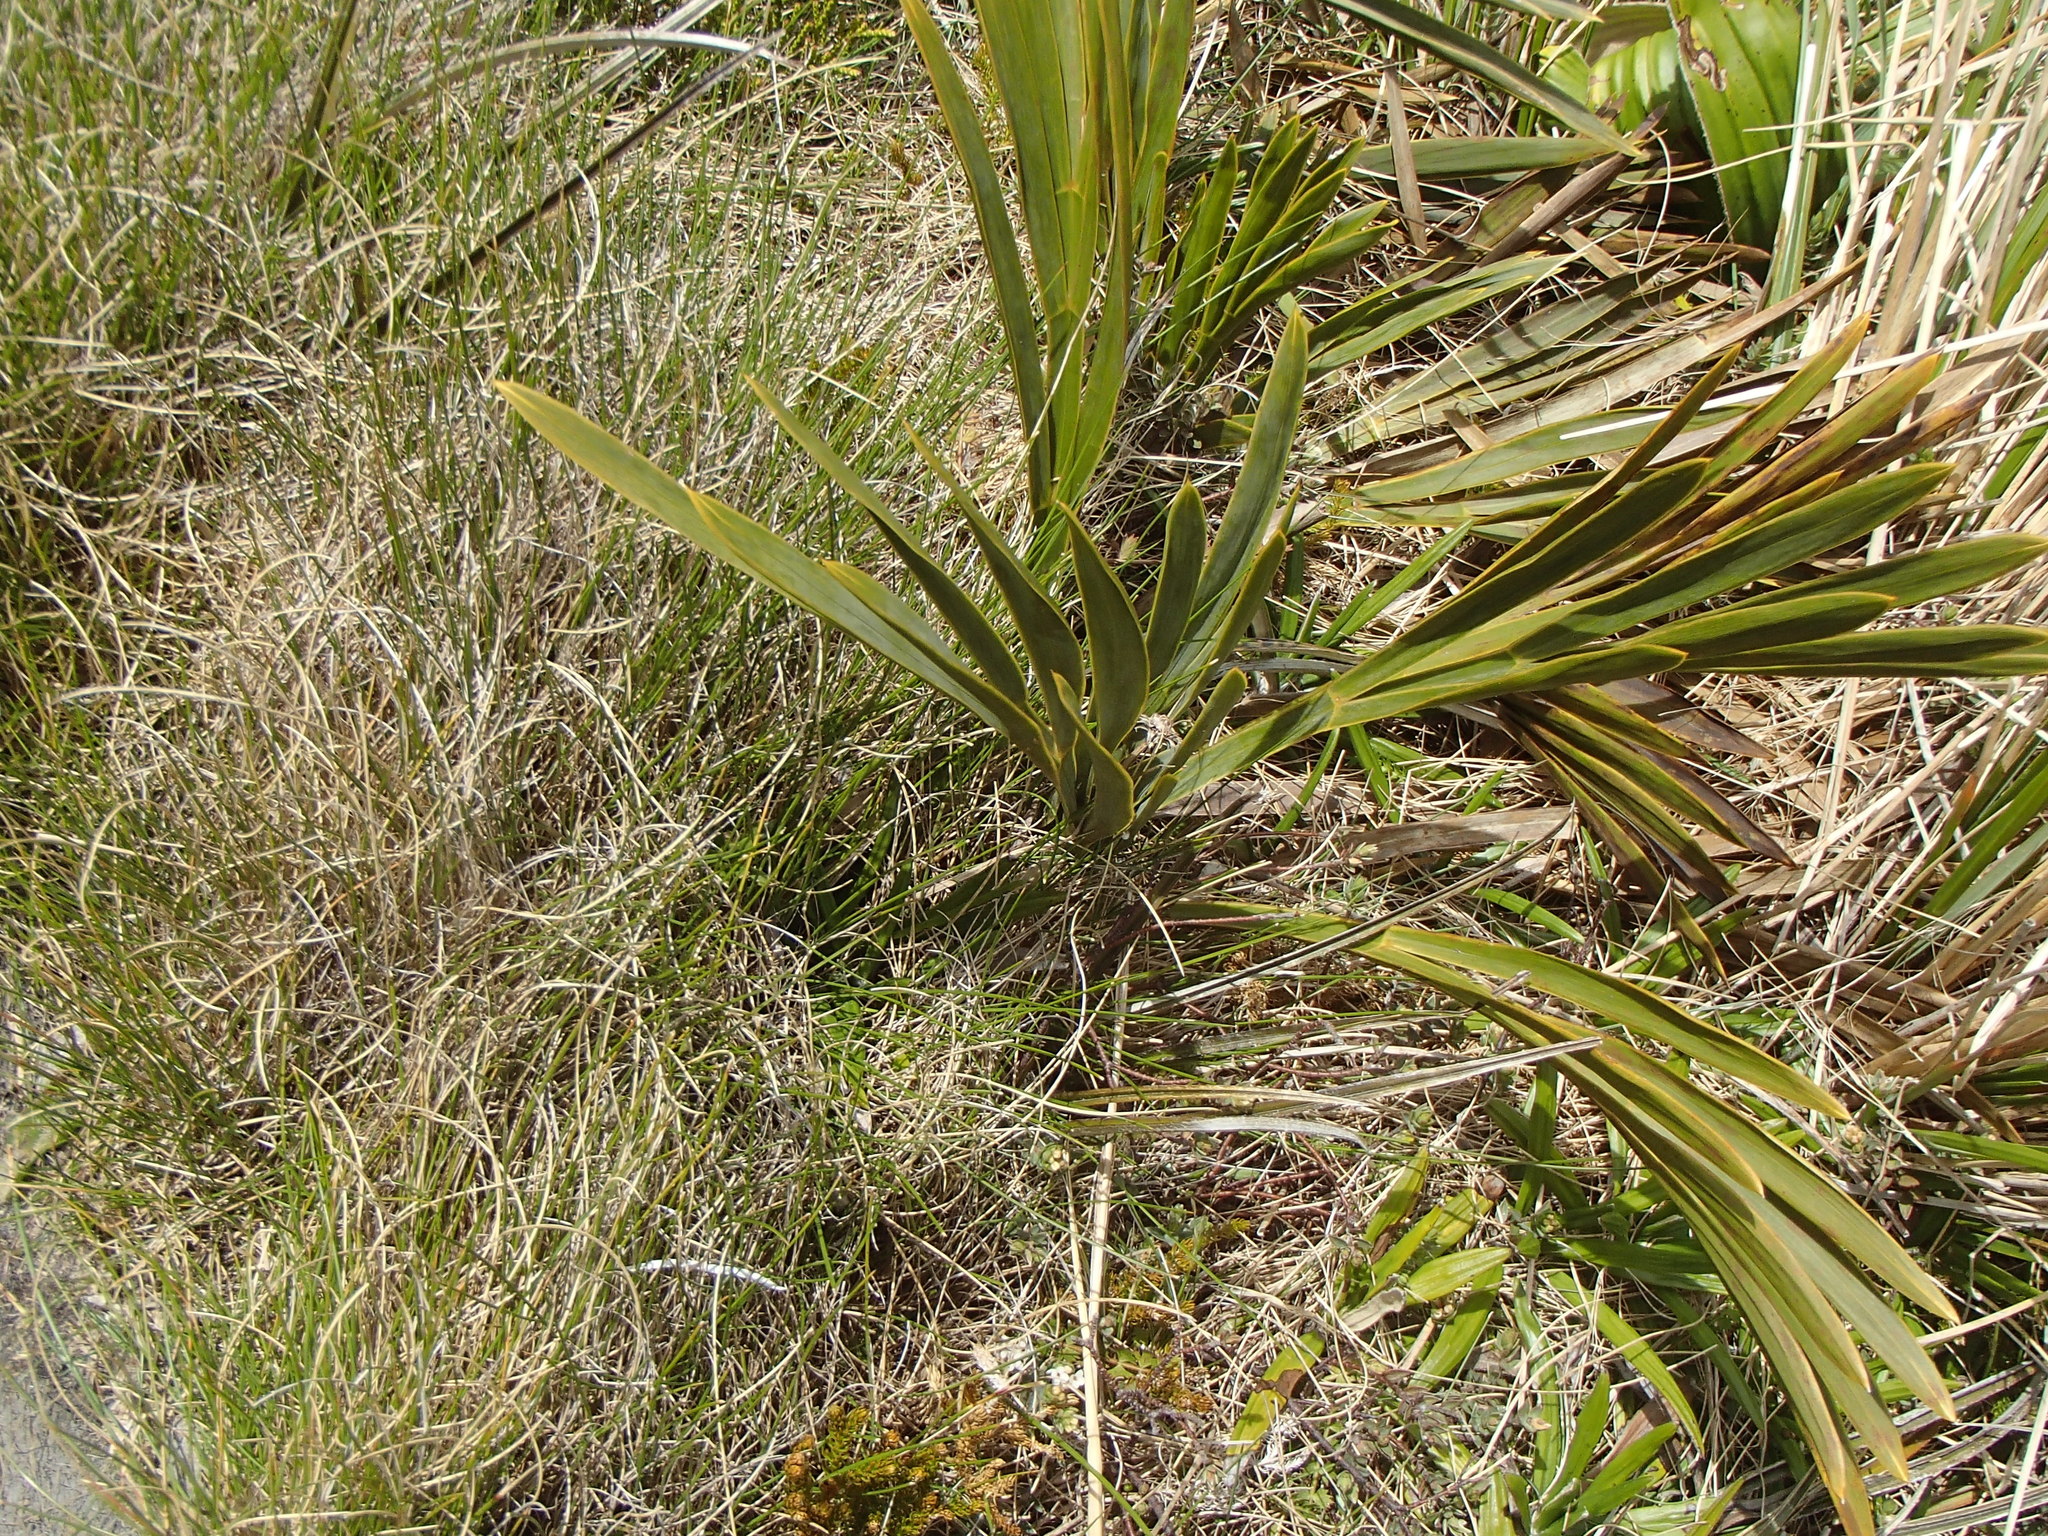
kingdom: Plantae
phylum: Tracheophyta
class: Magnoliopsida
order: Apiales
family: Apiaceae
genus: Aciphylla
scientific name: Aciphylla ferox
